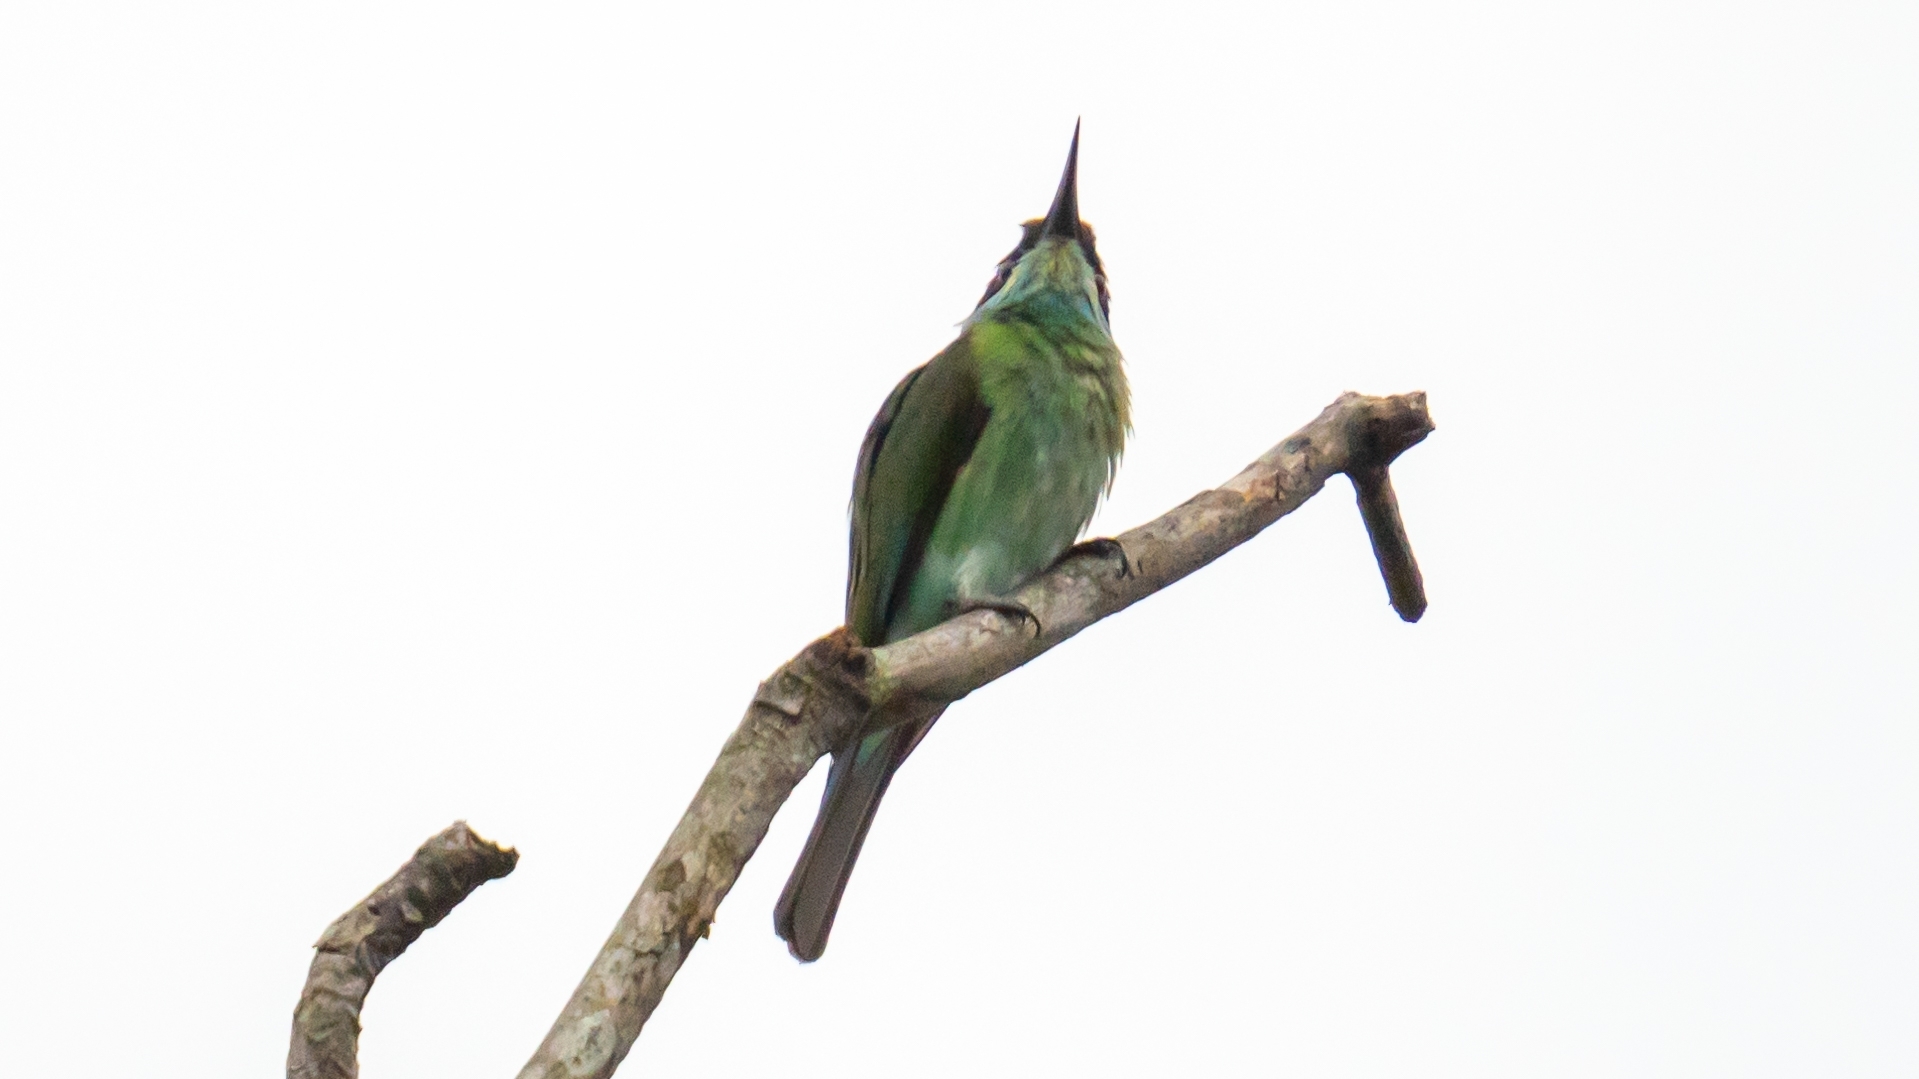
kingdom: Animalia
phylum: Chordata
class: Aves
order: Coraciiformes
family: Meropidae
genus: Merops
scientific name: Merops viridis
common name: Blue-throated bee-eater
